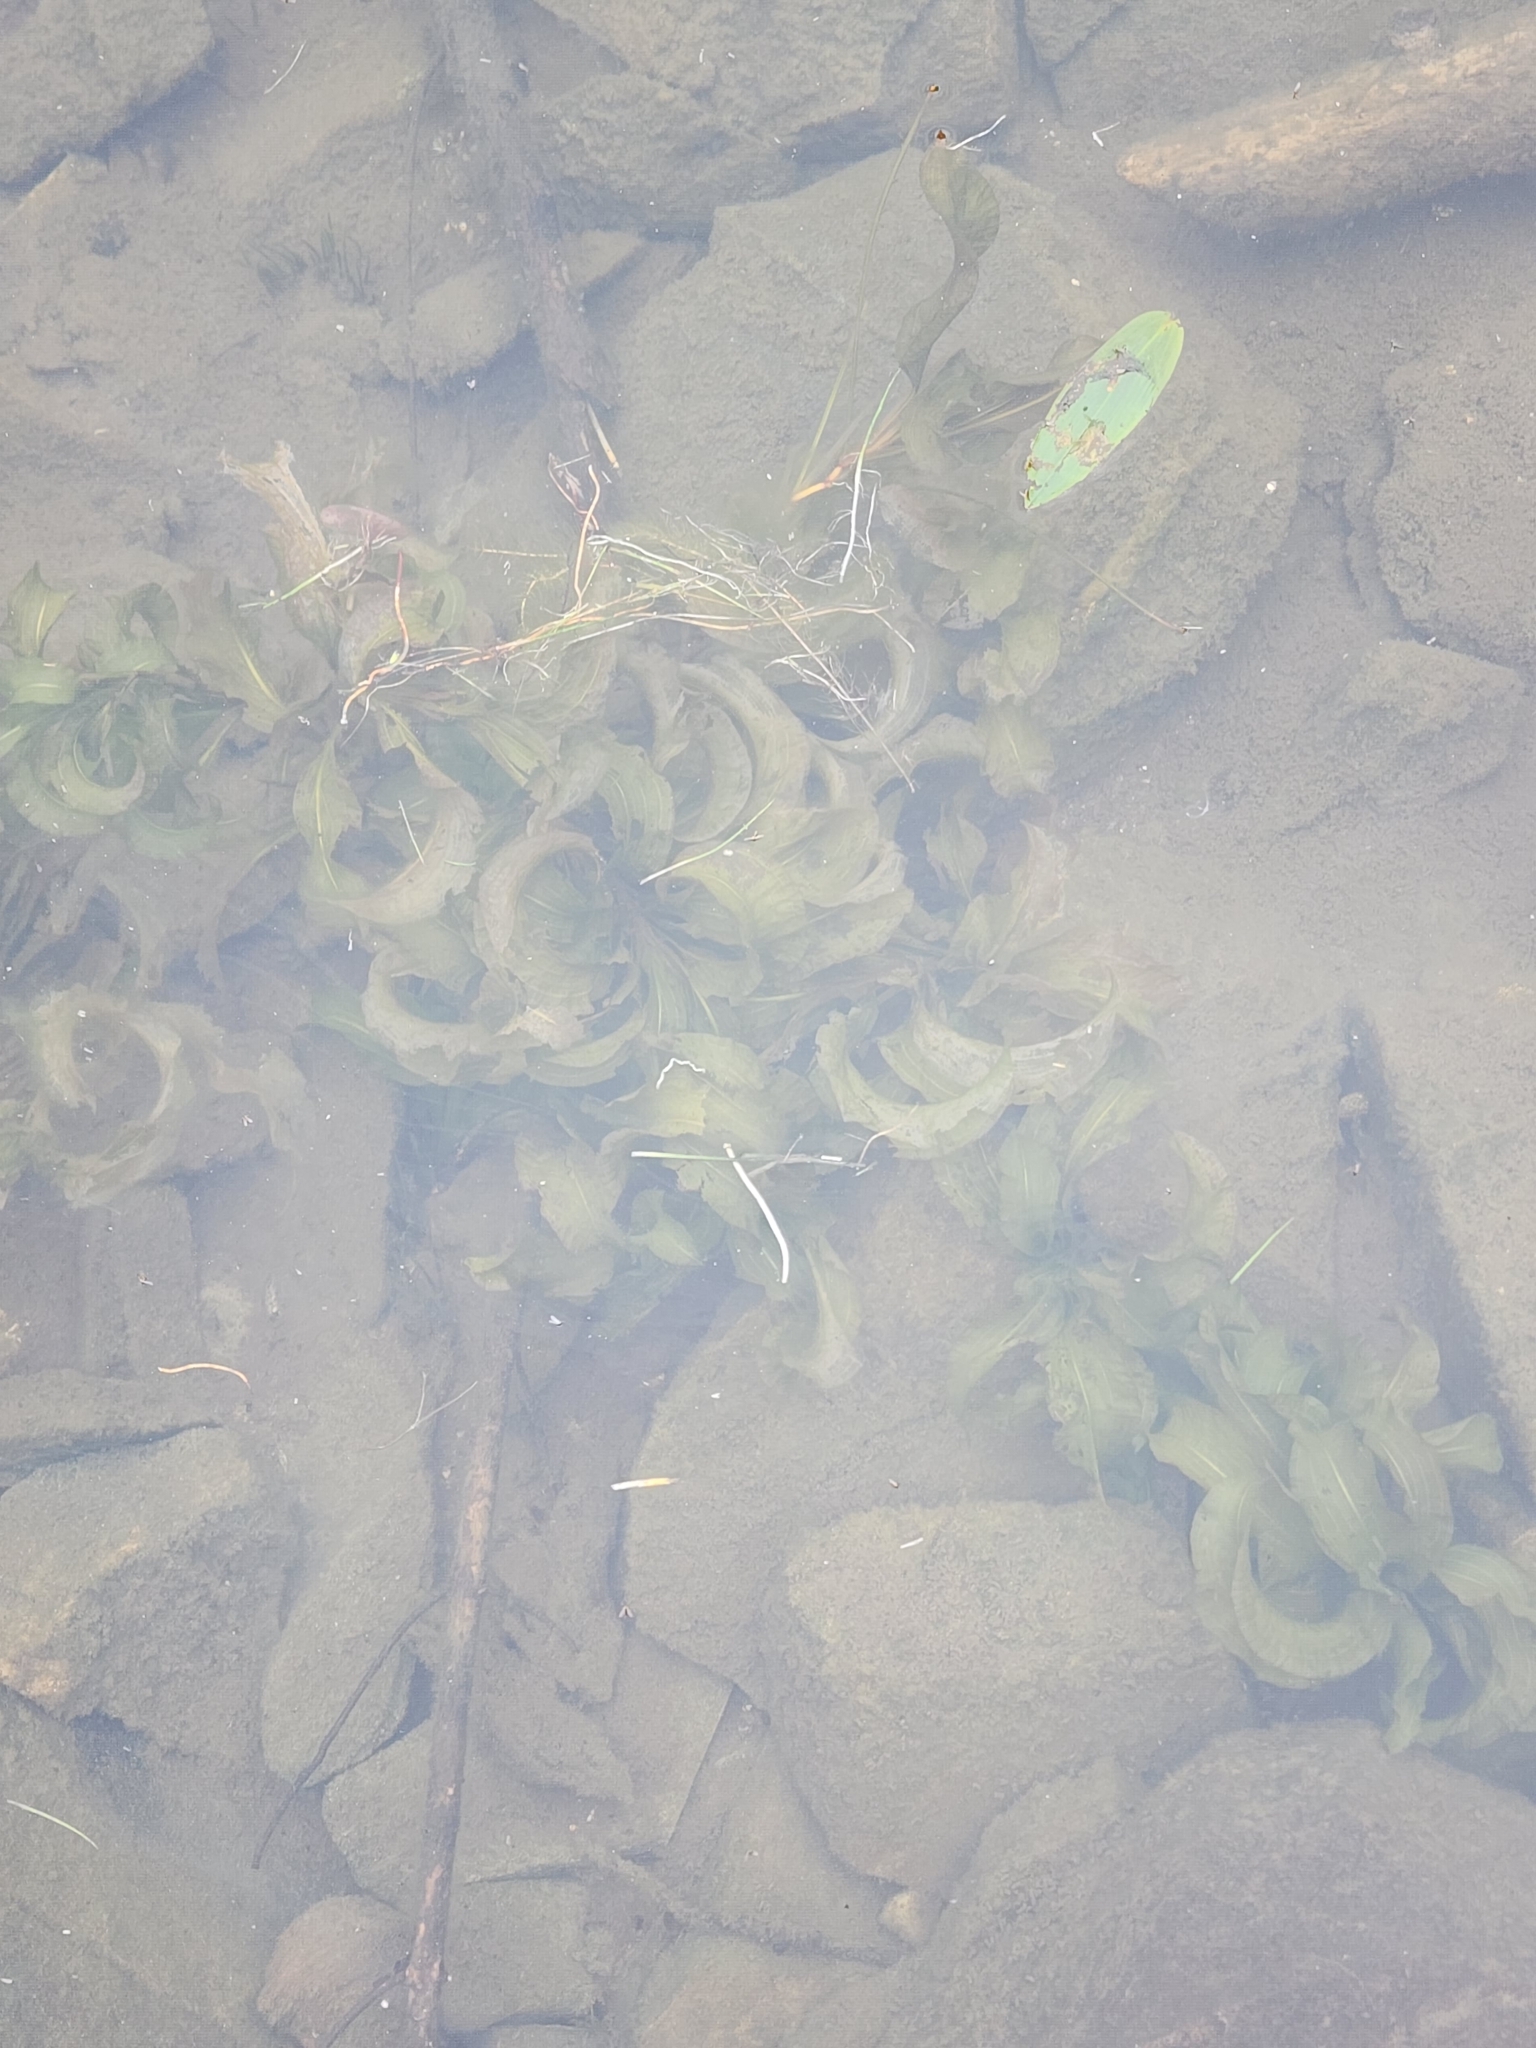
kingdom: Plantae
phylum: Tracheophyta
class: Liliopsida
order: Alismatales
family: Potamogetonaceae
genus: Potamogeton
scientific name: Potamogeton amplifolius
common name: Broad-leaved pondweed
